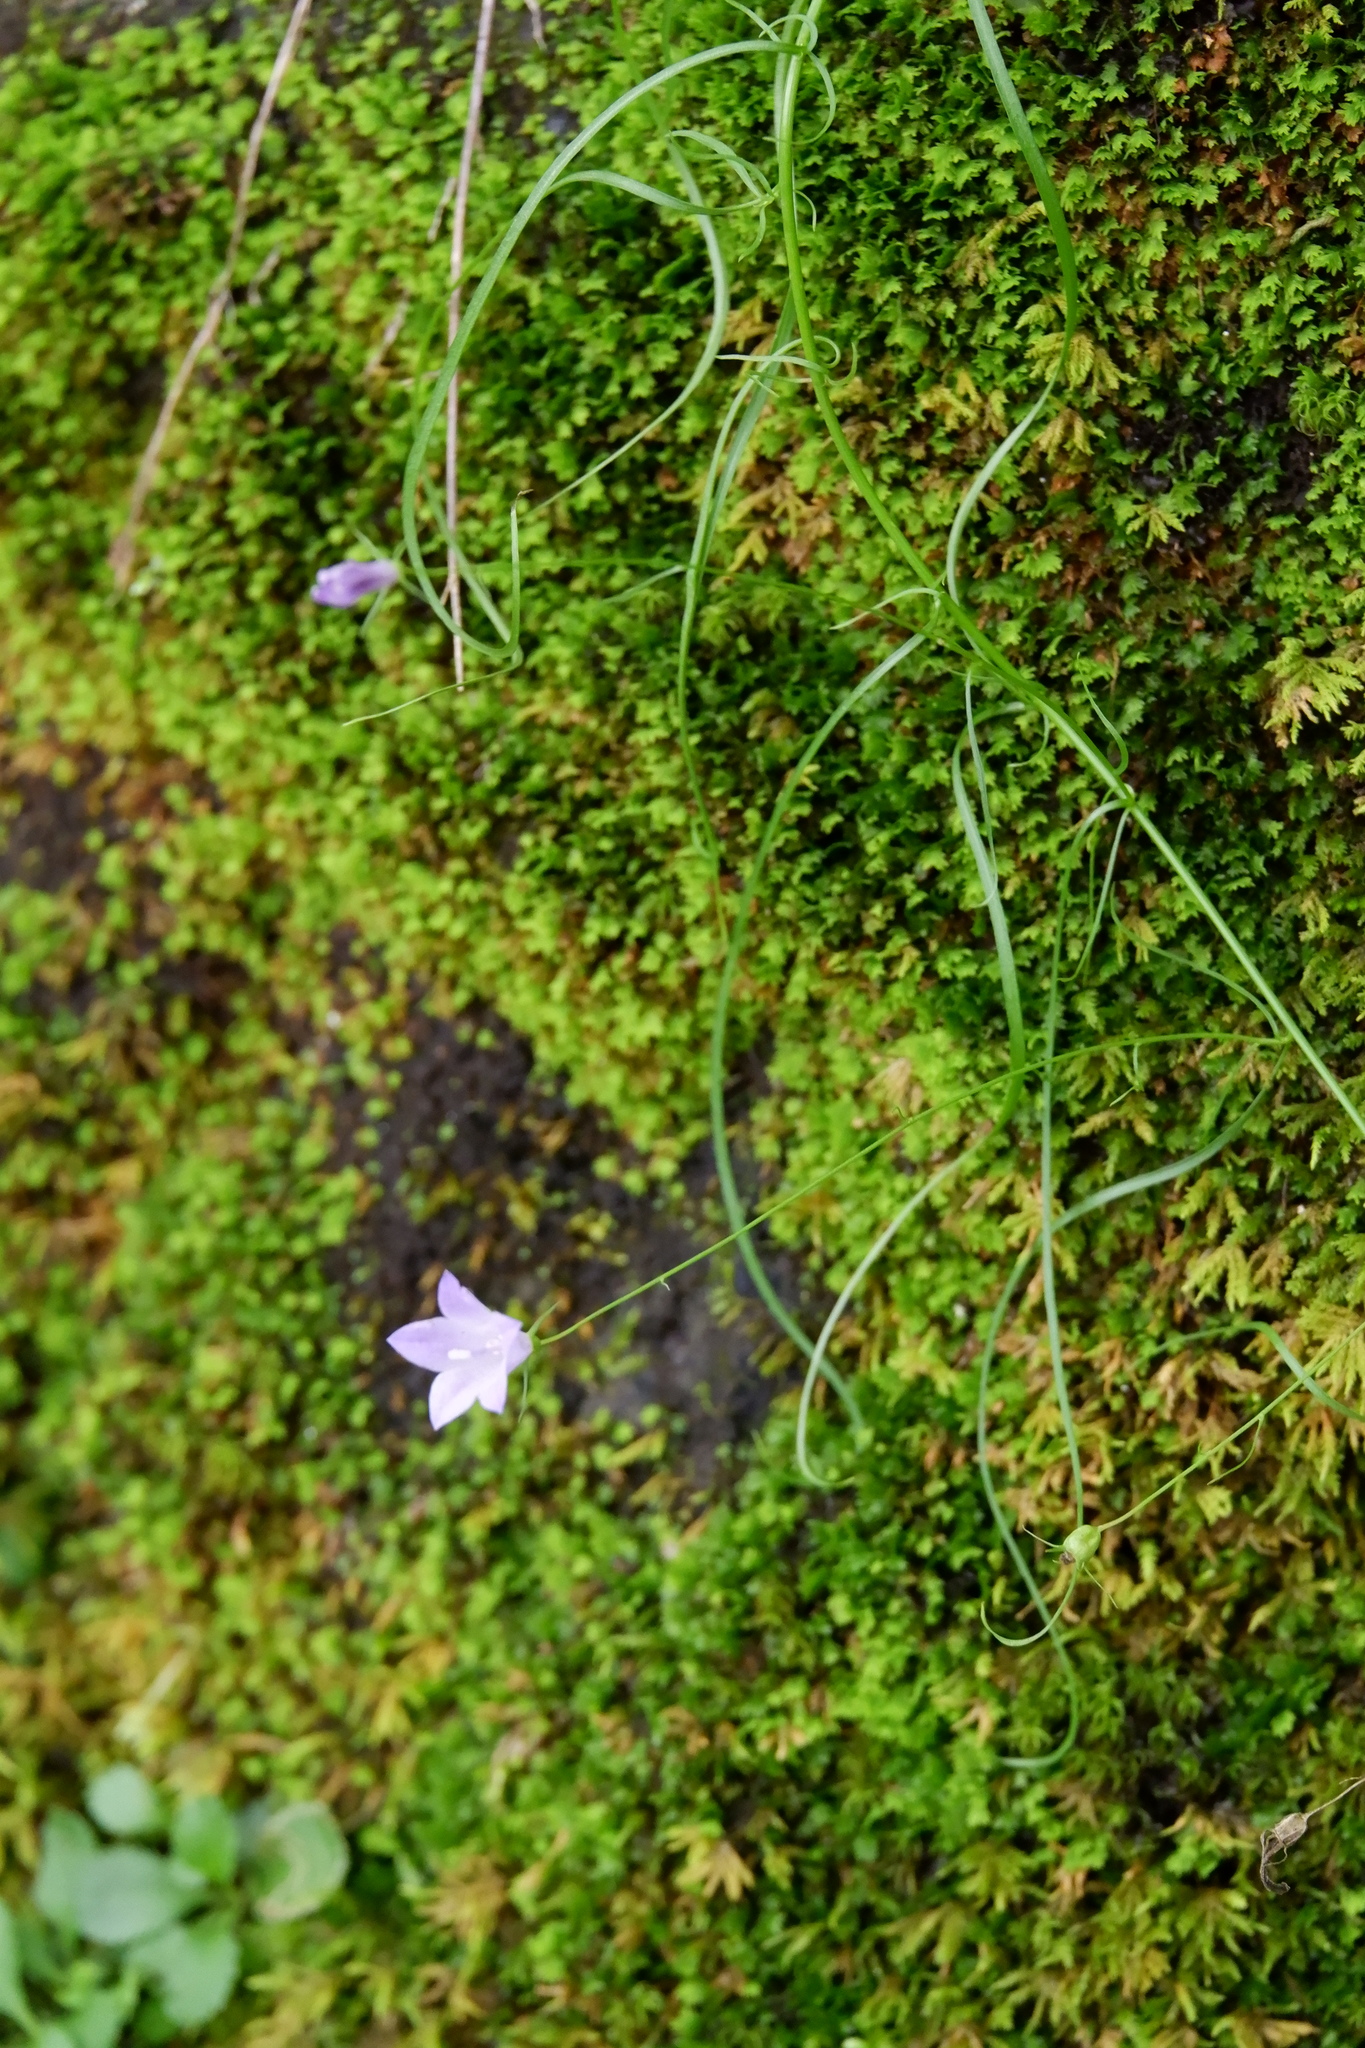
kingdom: Plantae
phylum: Tracheophyta
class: Magnoliopsida
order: Asterales
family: Campanulaceae
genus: Campanula
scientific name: Campanula intercedens
